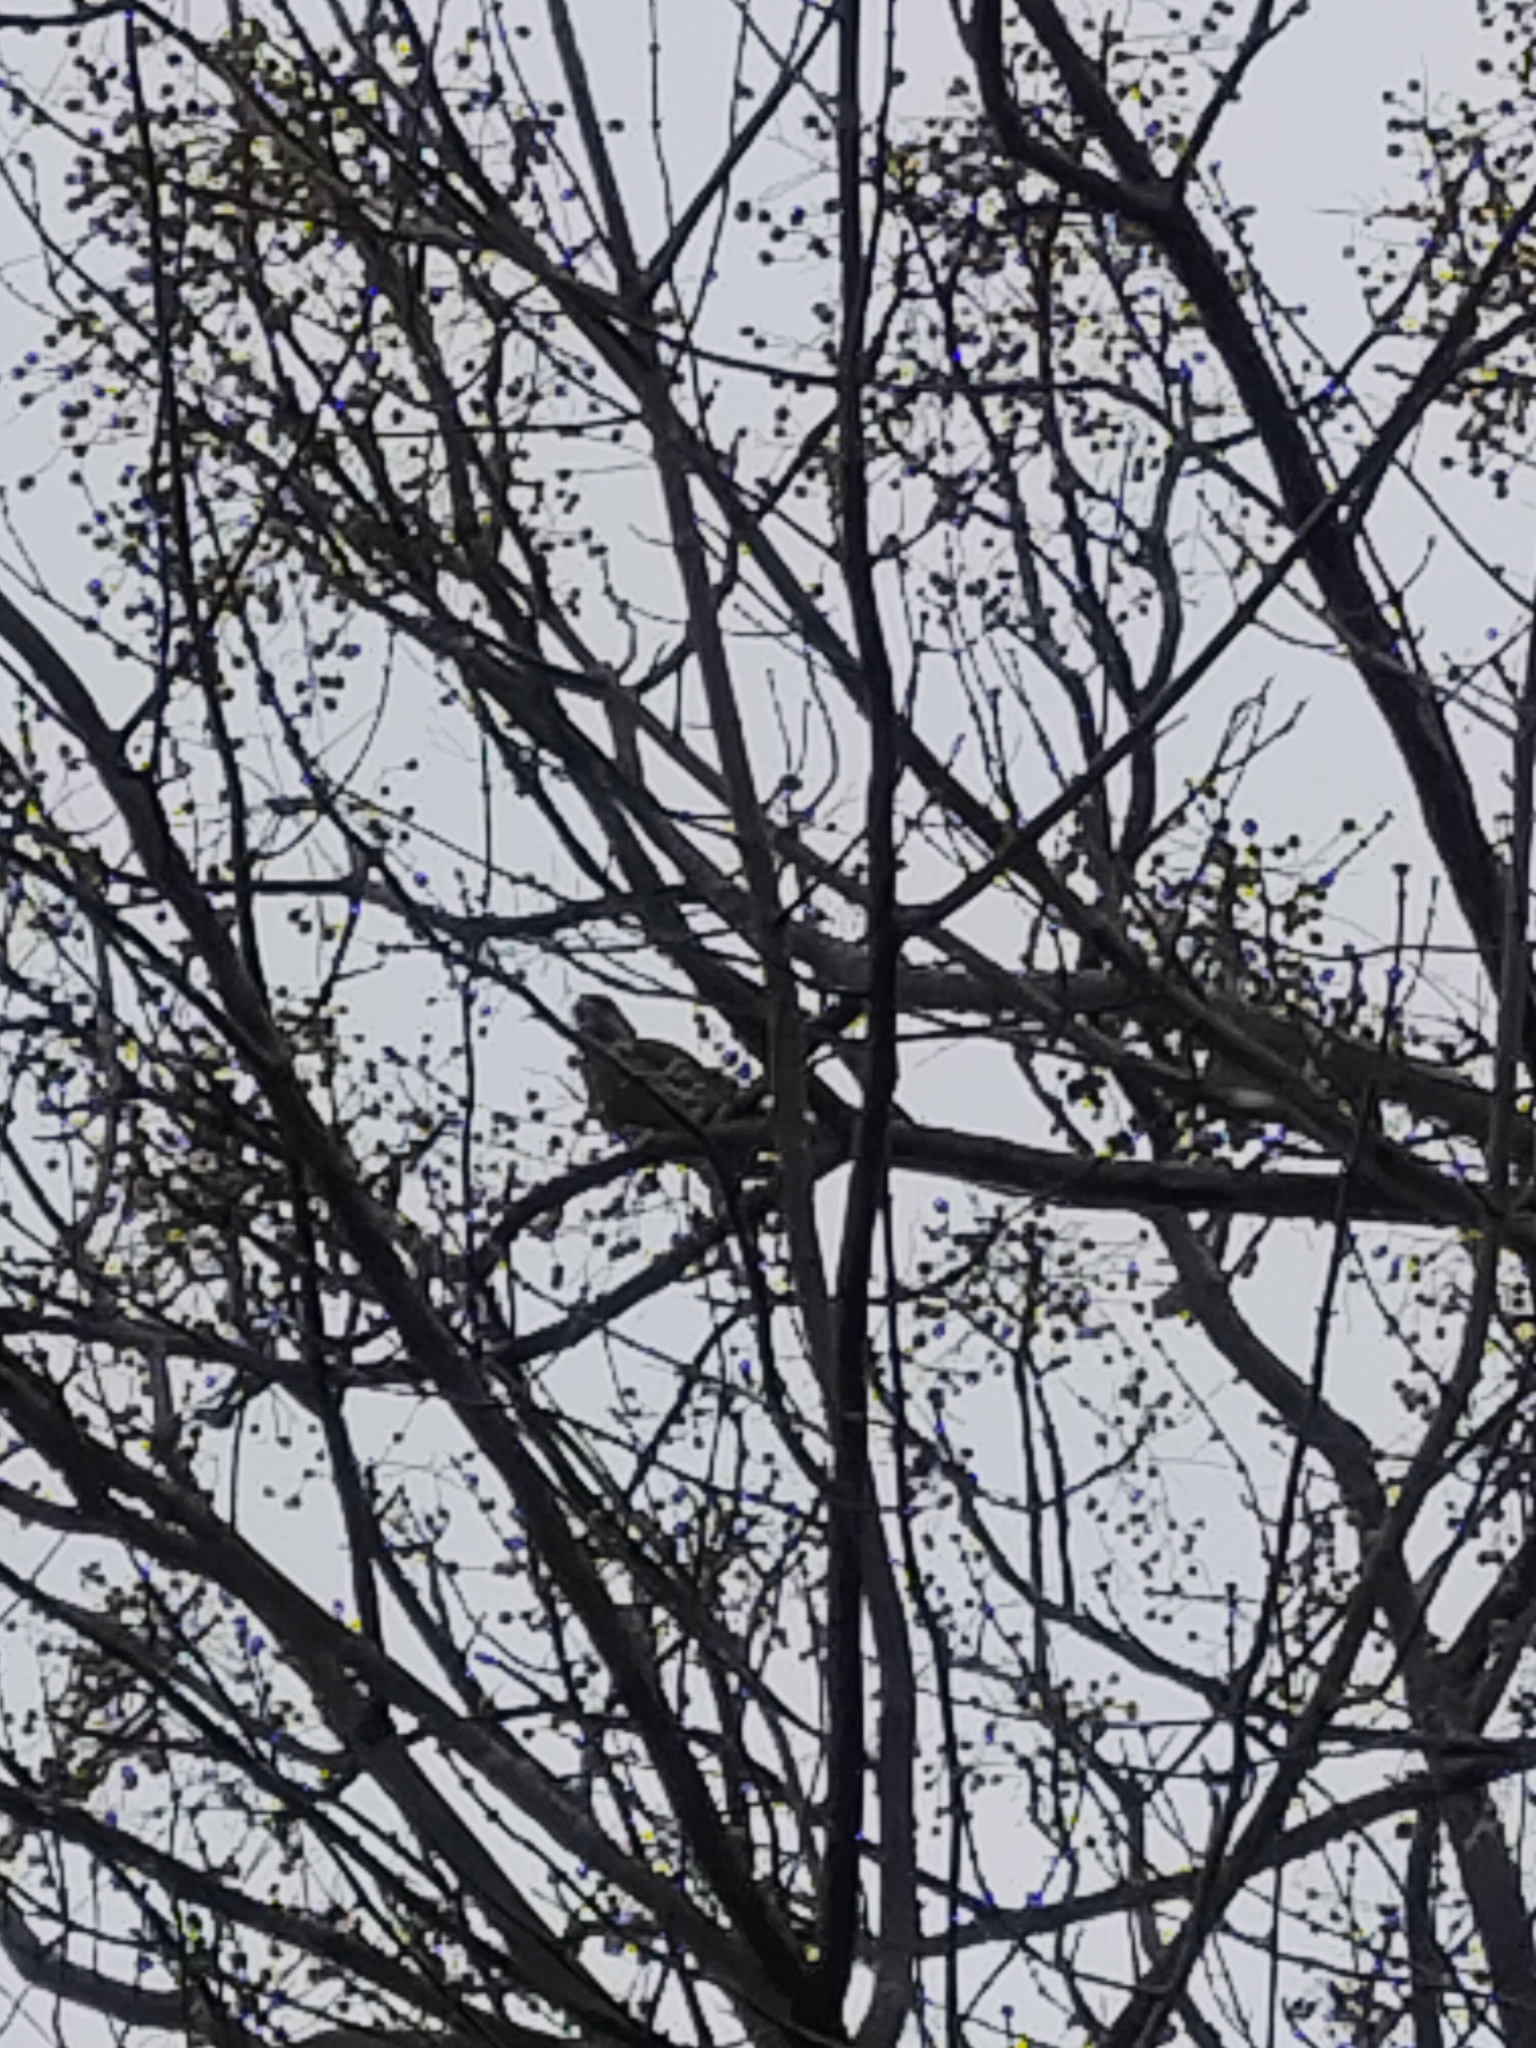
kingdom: Animalia
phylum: Chordata
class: Aves
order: Psittaciformes
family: Psittacidae
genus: Psittacula
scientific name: Psittacula krameri
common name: Rose-ringed parakeet
